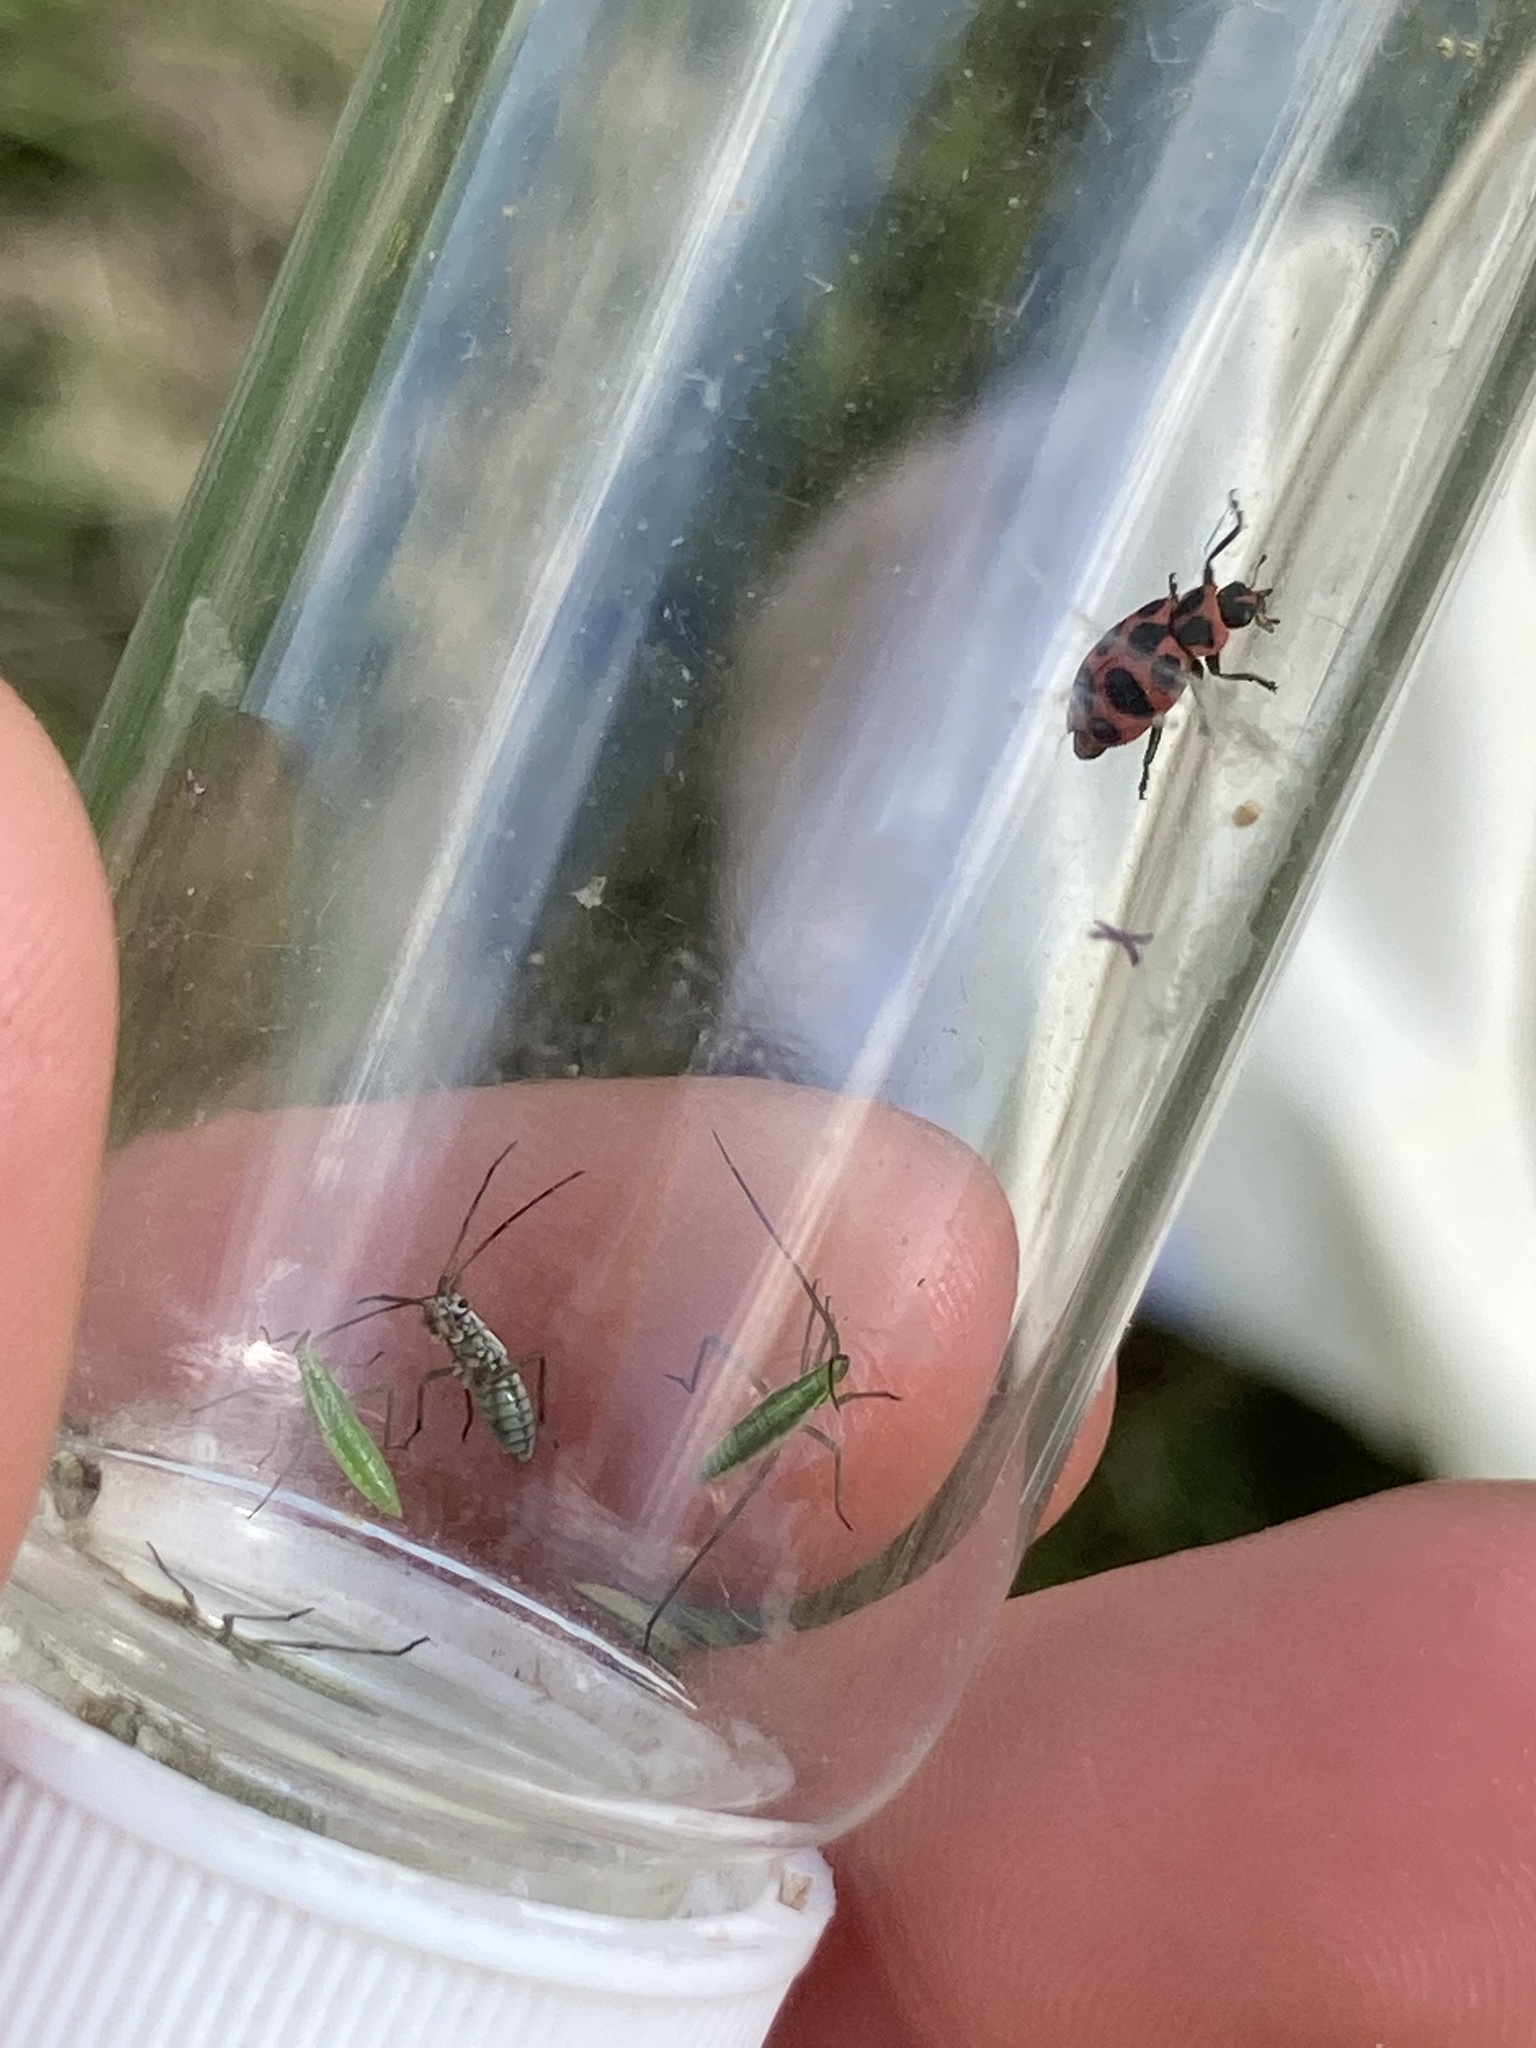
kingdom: Animalia
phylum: Arthropoda
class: Insecta
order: Coleoptera
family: Coccinellidae
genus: Coleomegilla
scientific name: Coleomegilla maculata
